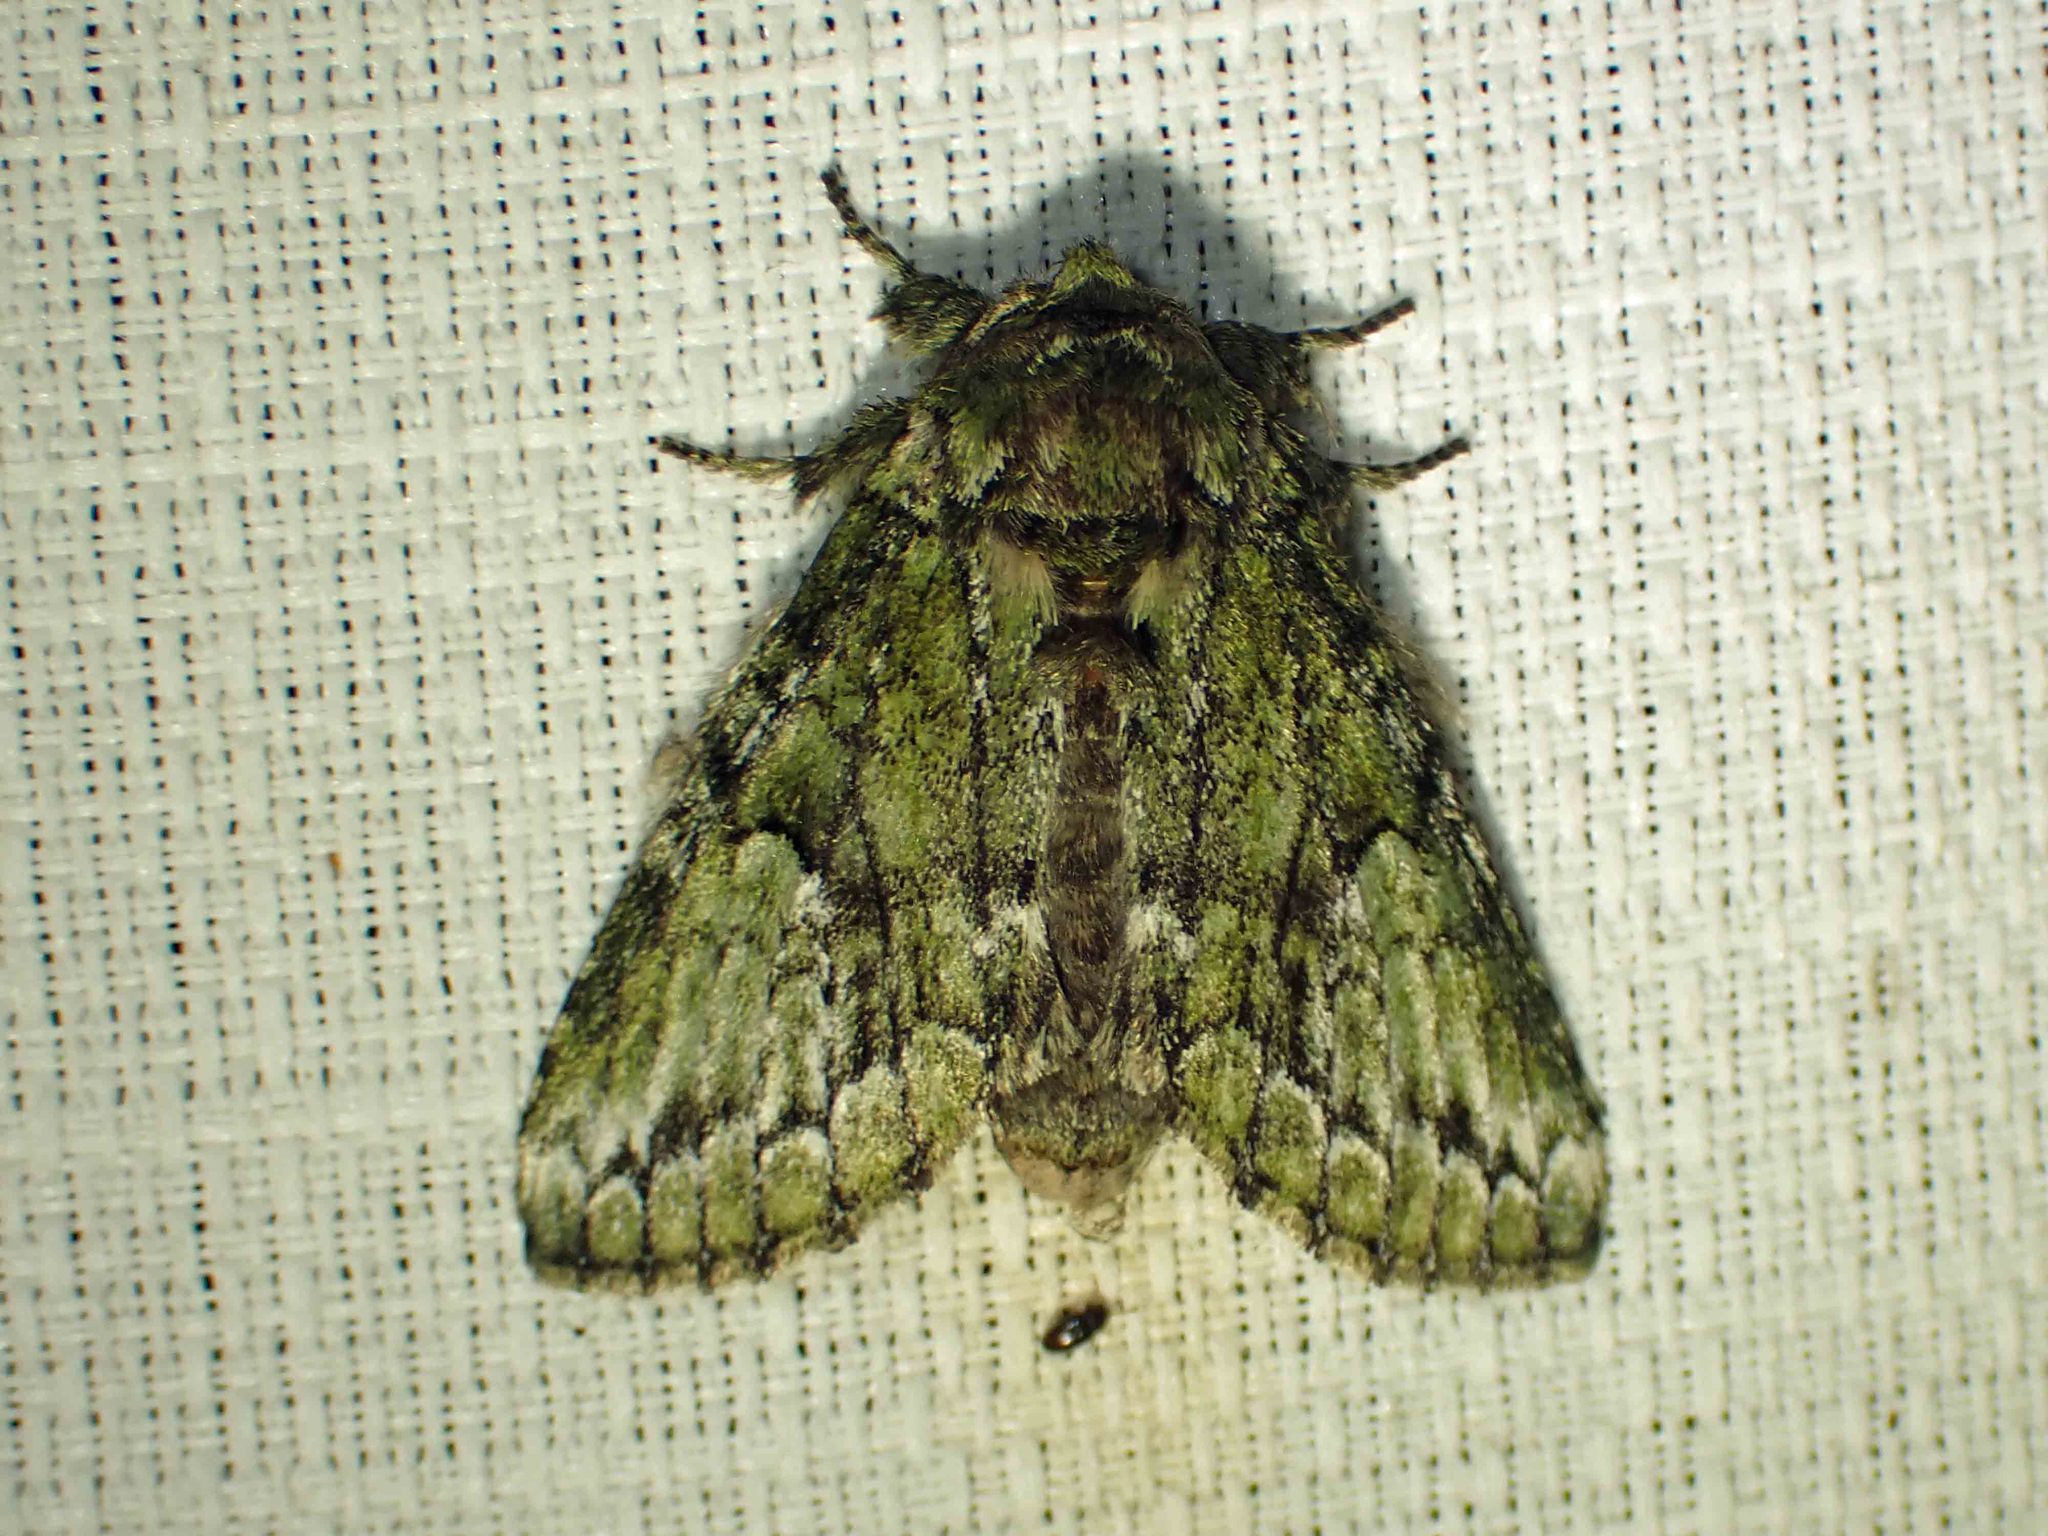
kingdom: Animalia
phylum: Arthropoda
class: Insecta
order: Lepidoptera
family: Notodontidae
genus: Heterocampa
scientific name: Heterocampa
